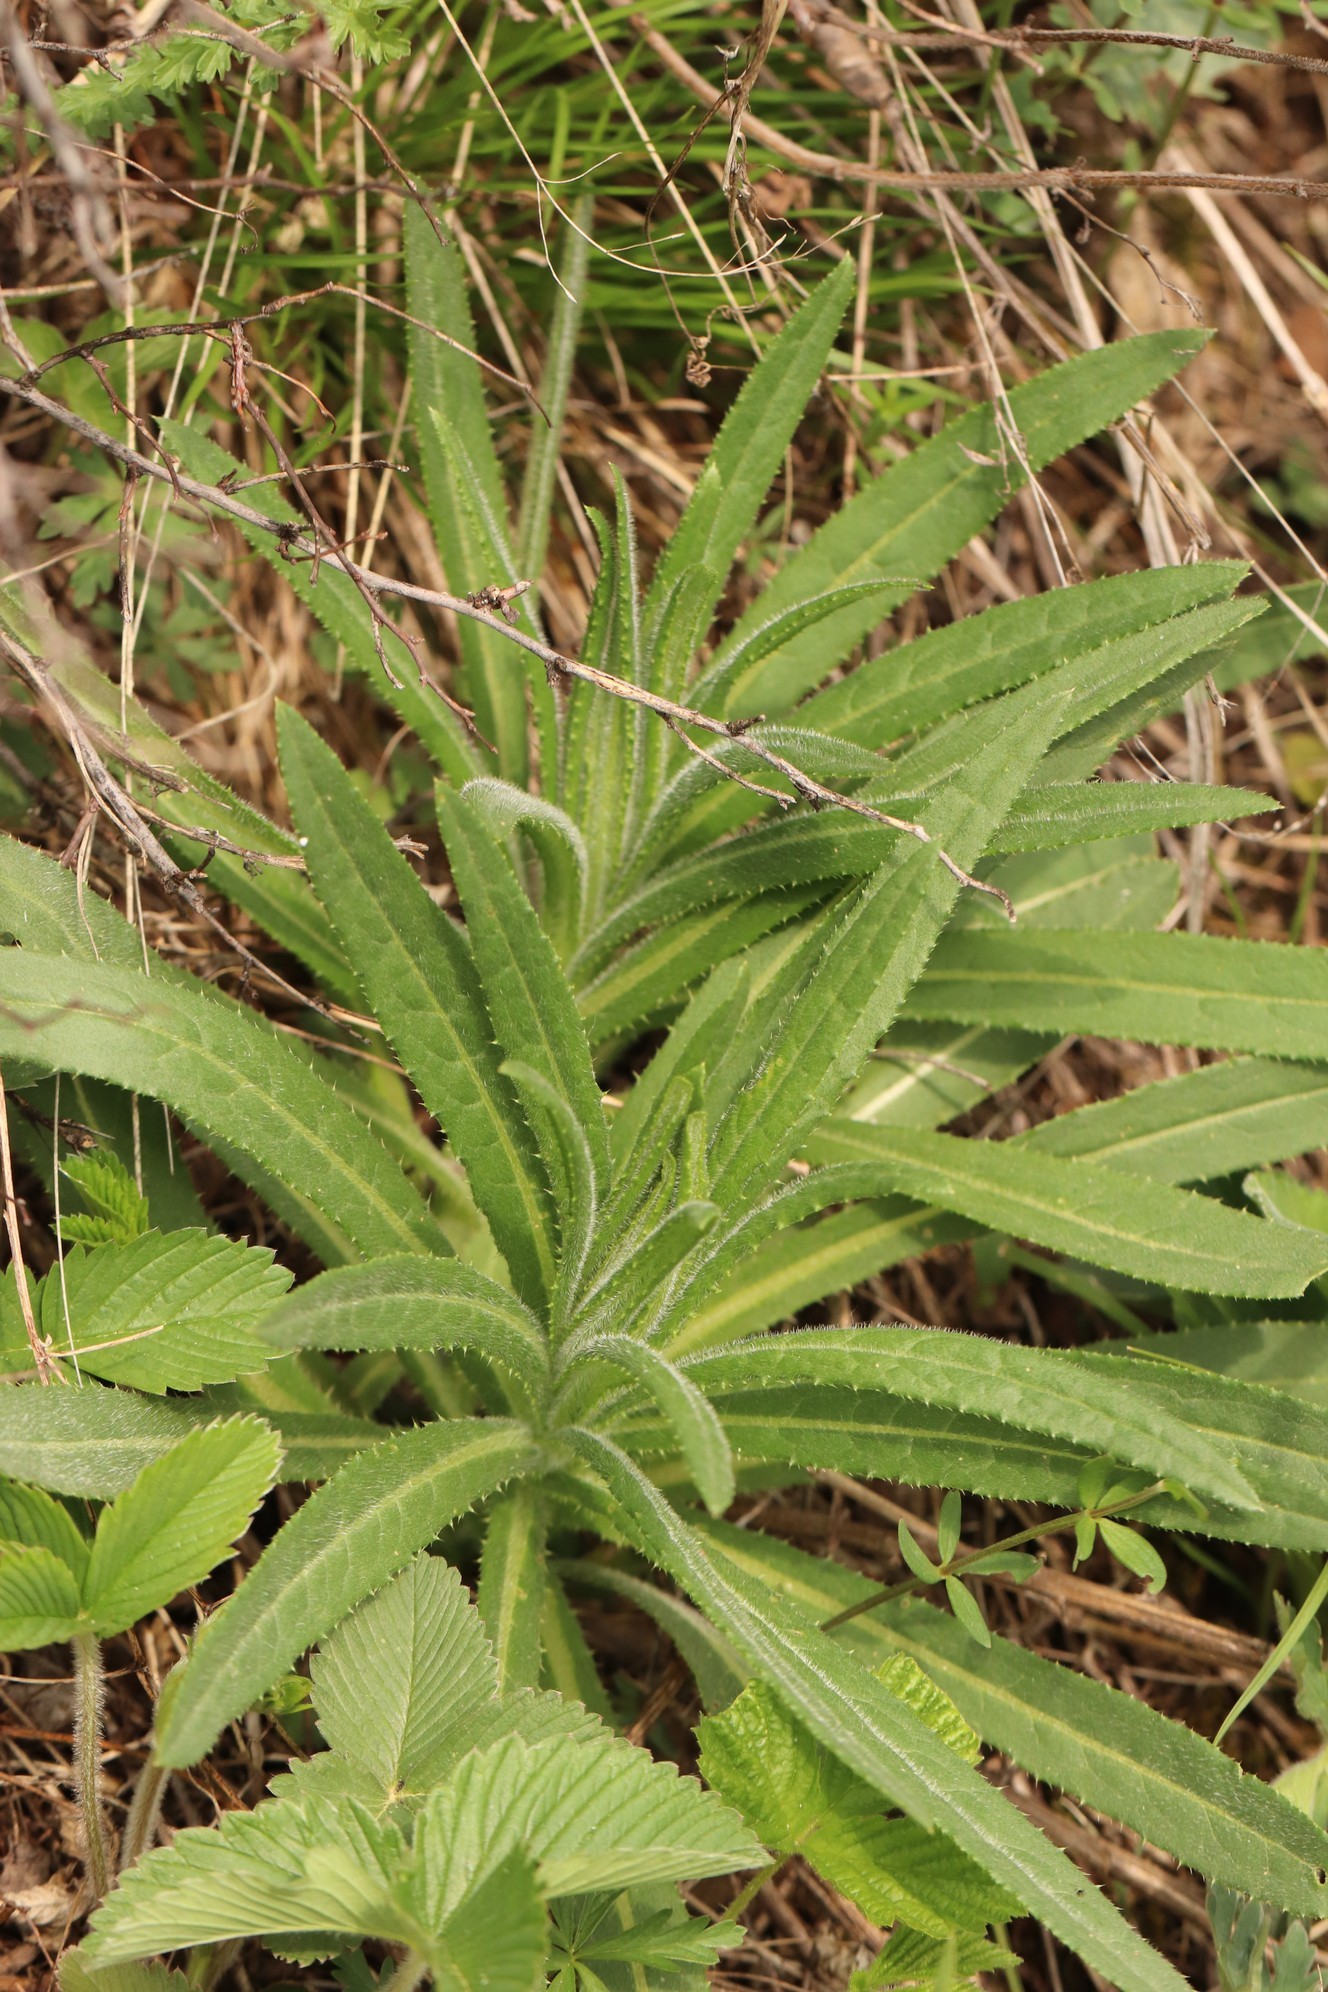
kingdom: Plantae
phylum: Tracheophyta
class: Magnoliopsida
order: Asterales
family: Asteraceae
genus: Cirsium
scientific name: Cirsium serratuloides
